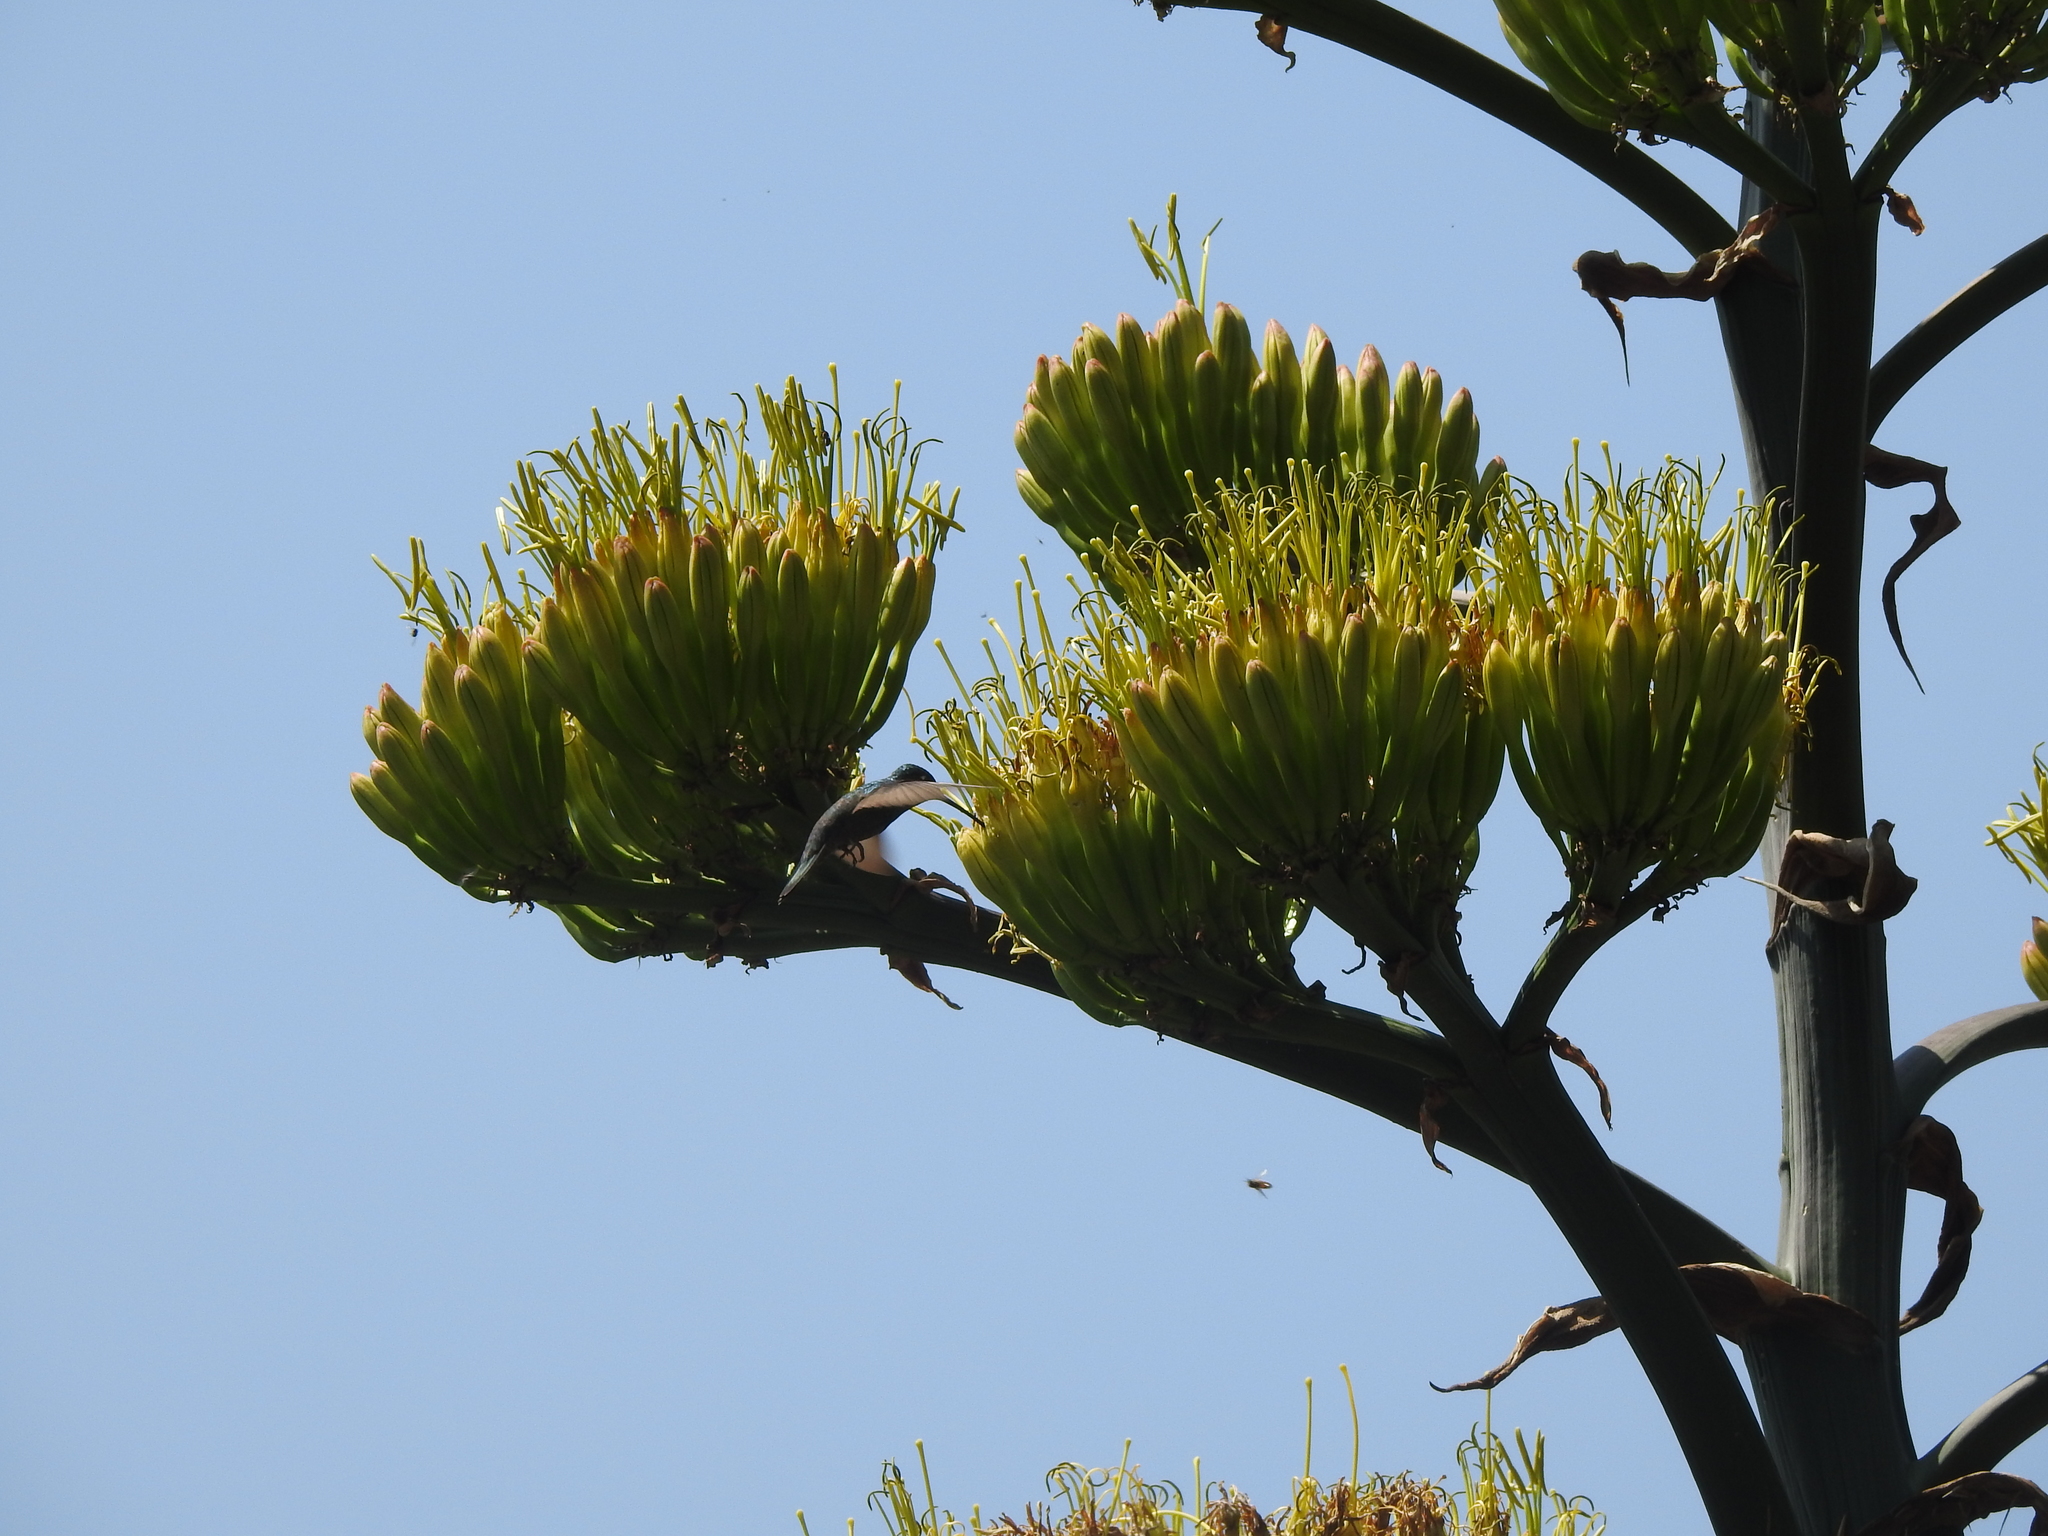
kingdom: Animalia
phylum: Chordata
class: Aves
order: Apodiformes
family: Trochilidae
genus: Eugenes
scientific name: Eugenes fulgens
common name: Magnificent hummingbird
